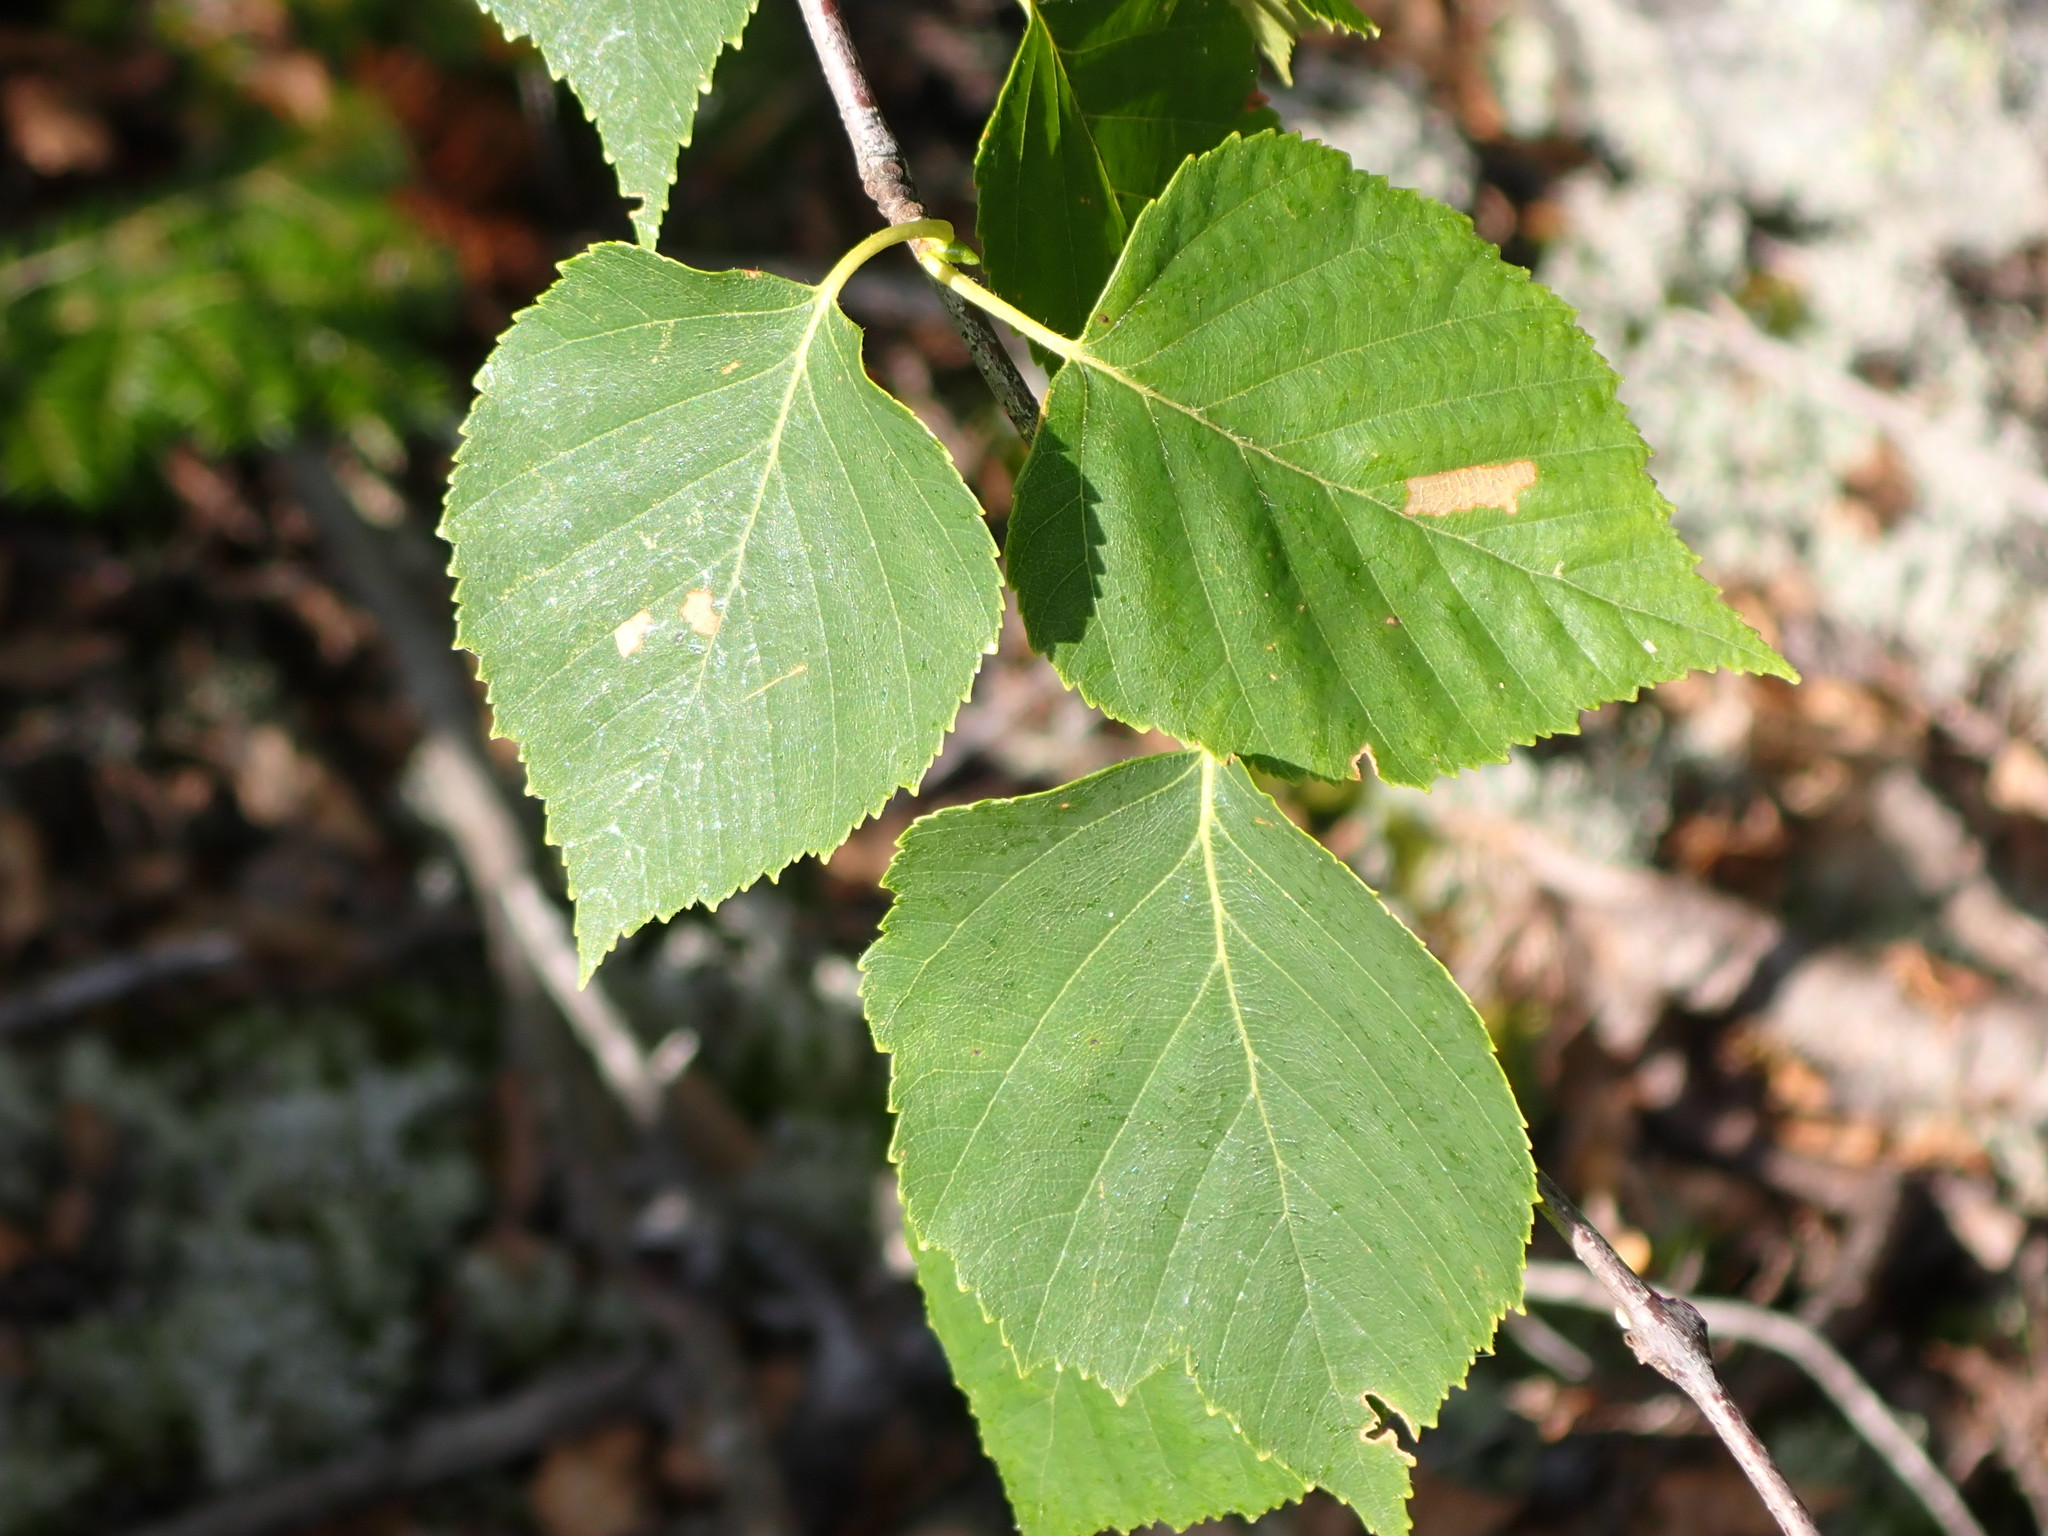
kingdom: Plantae
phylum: Tracheophyta
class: Magnoliopsida
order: Fagales
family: Betulaceae
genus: Betula
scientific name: Betula papyrifera
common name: Paper birch
